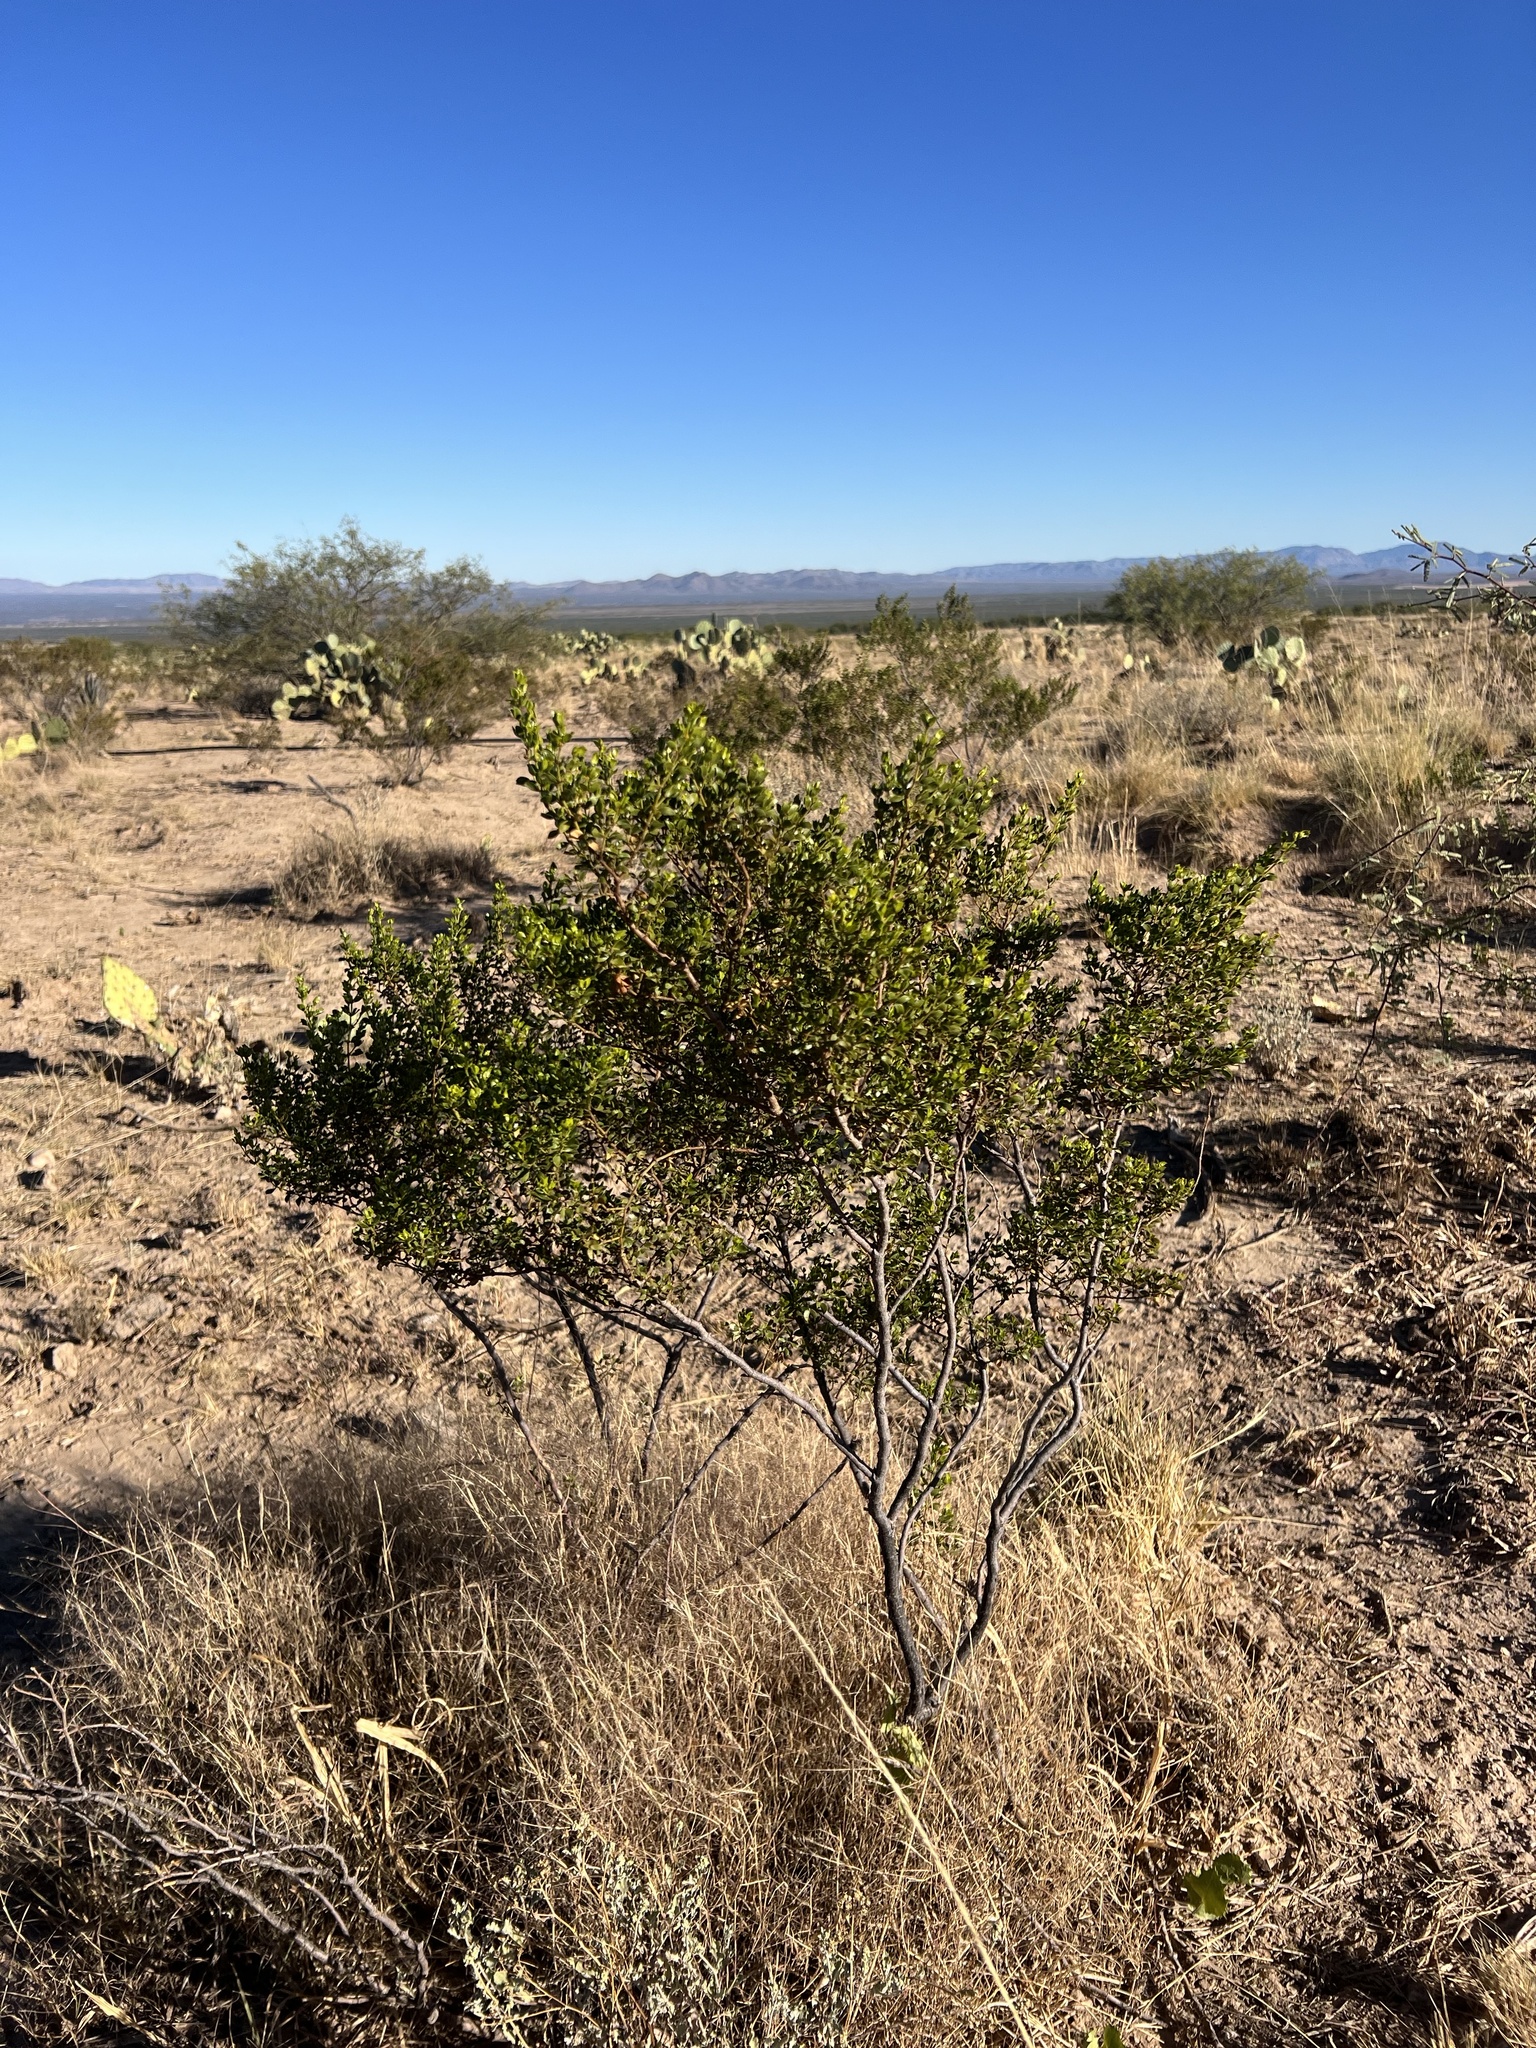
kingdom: Plantae
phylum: Tracheophyta
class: Magnoliopsida
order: Zygophyllales
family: Zygophyllaceae
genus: Larrea
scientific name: Larrea tridentata
